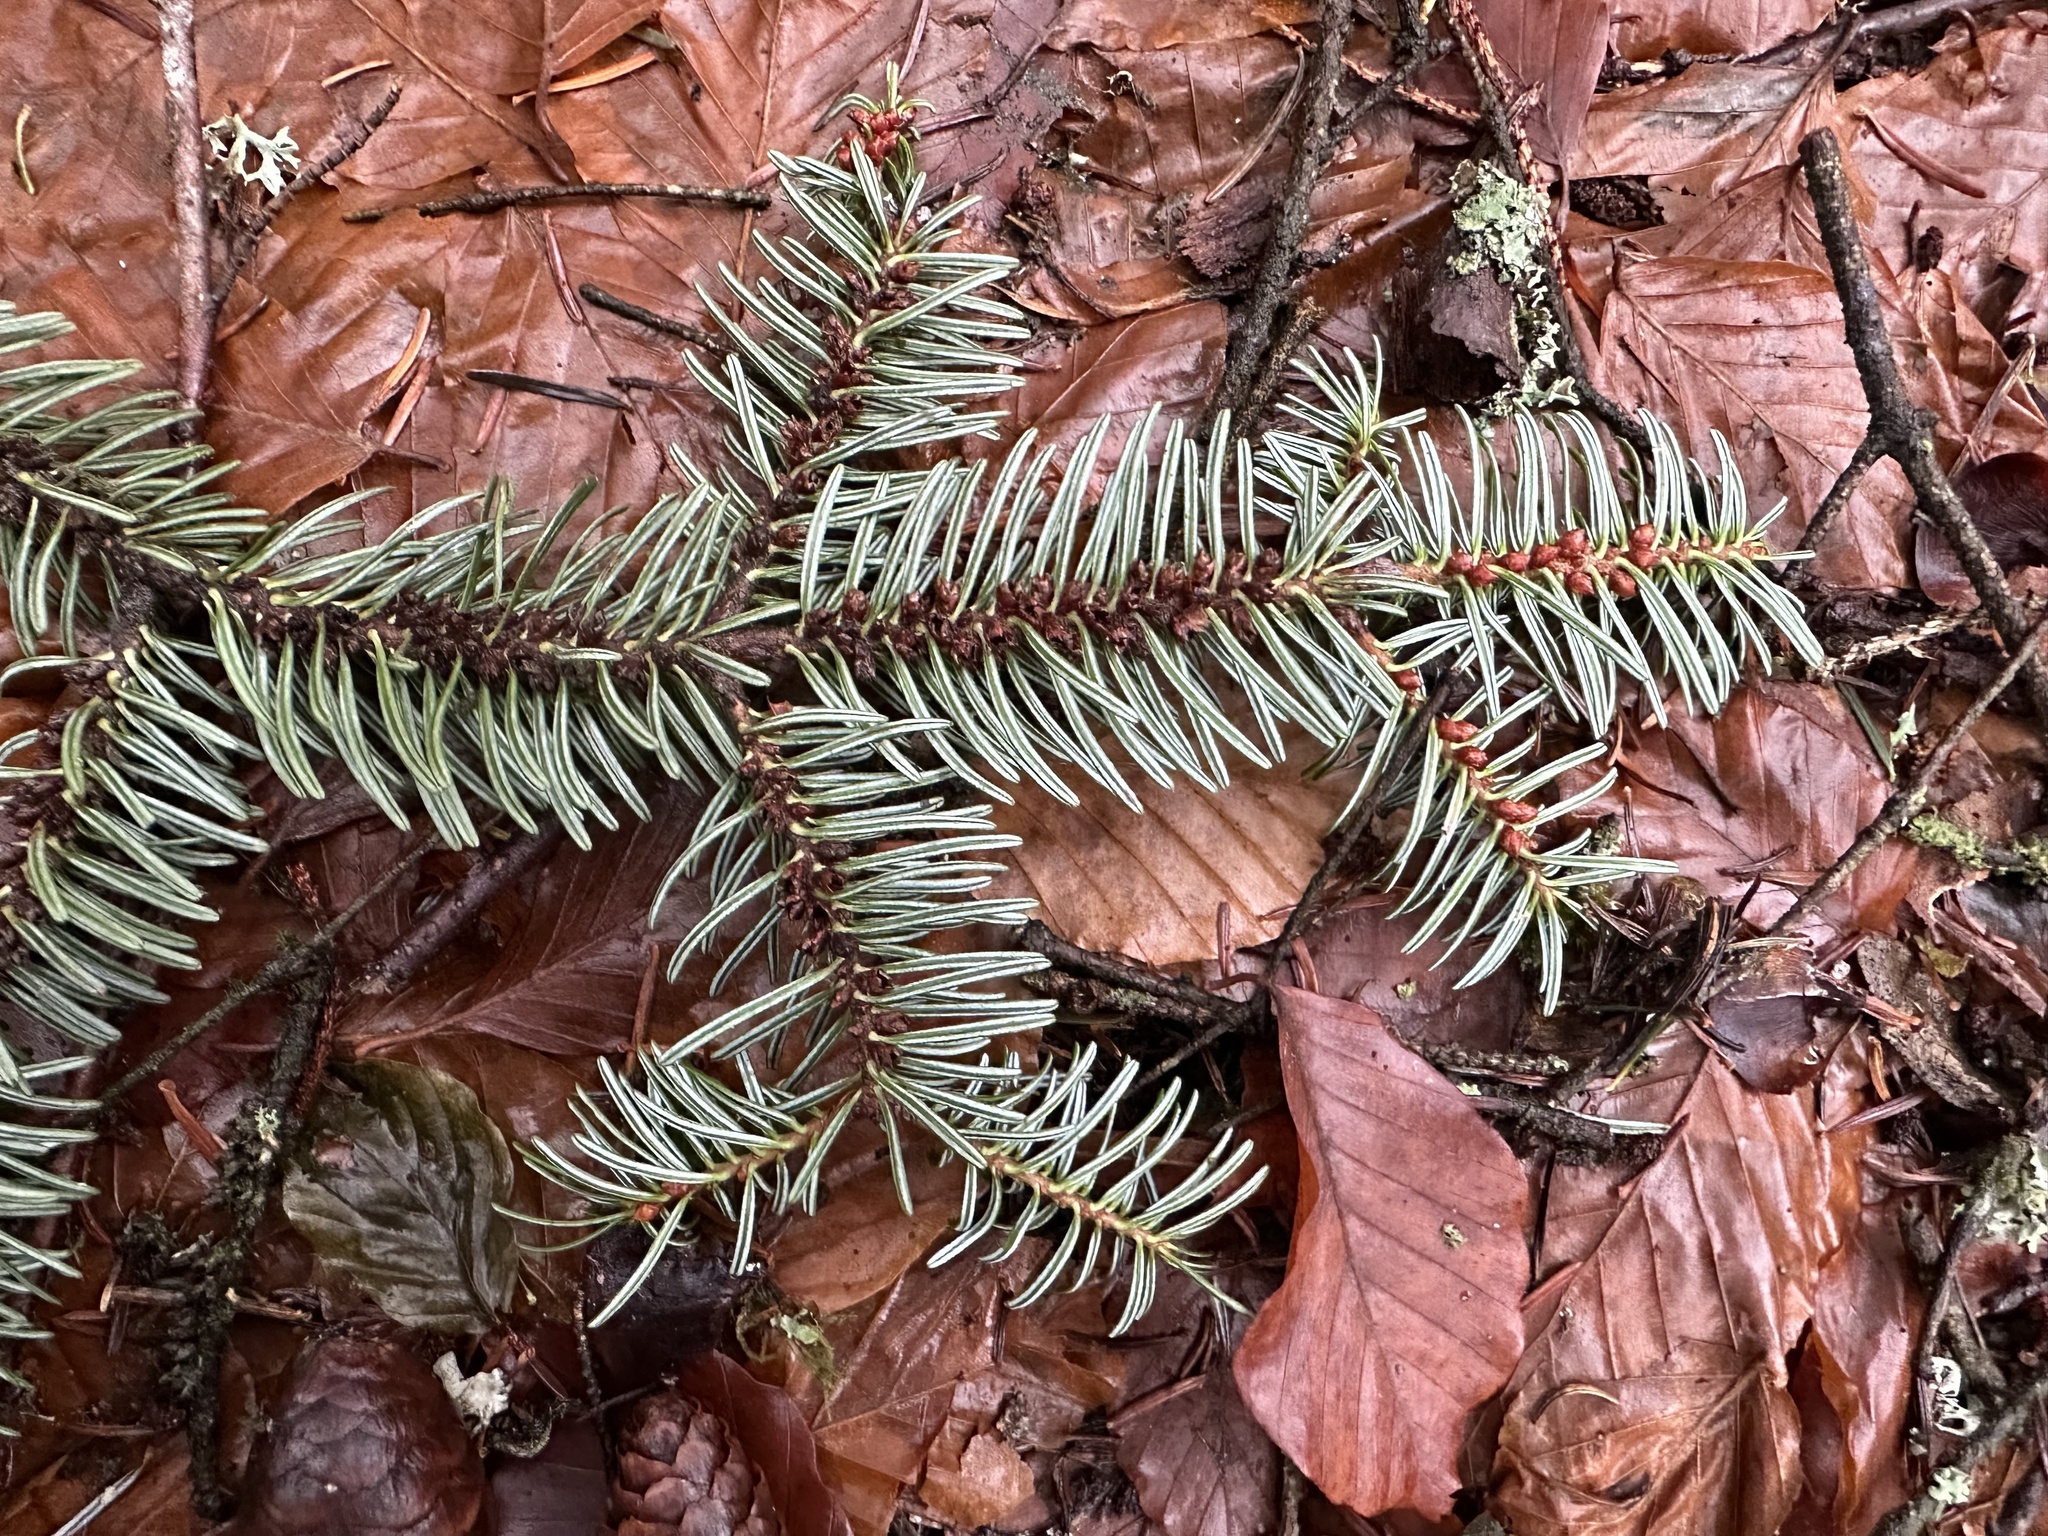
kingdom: Plantae
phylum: Tracheophyta
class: Pinopsida
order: Pinales
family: Pinaceae
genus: Abies
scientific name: Abies alba
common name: Silver fir
